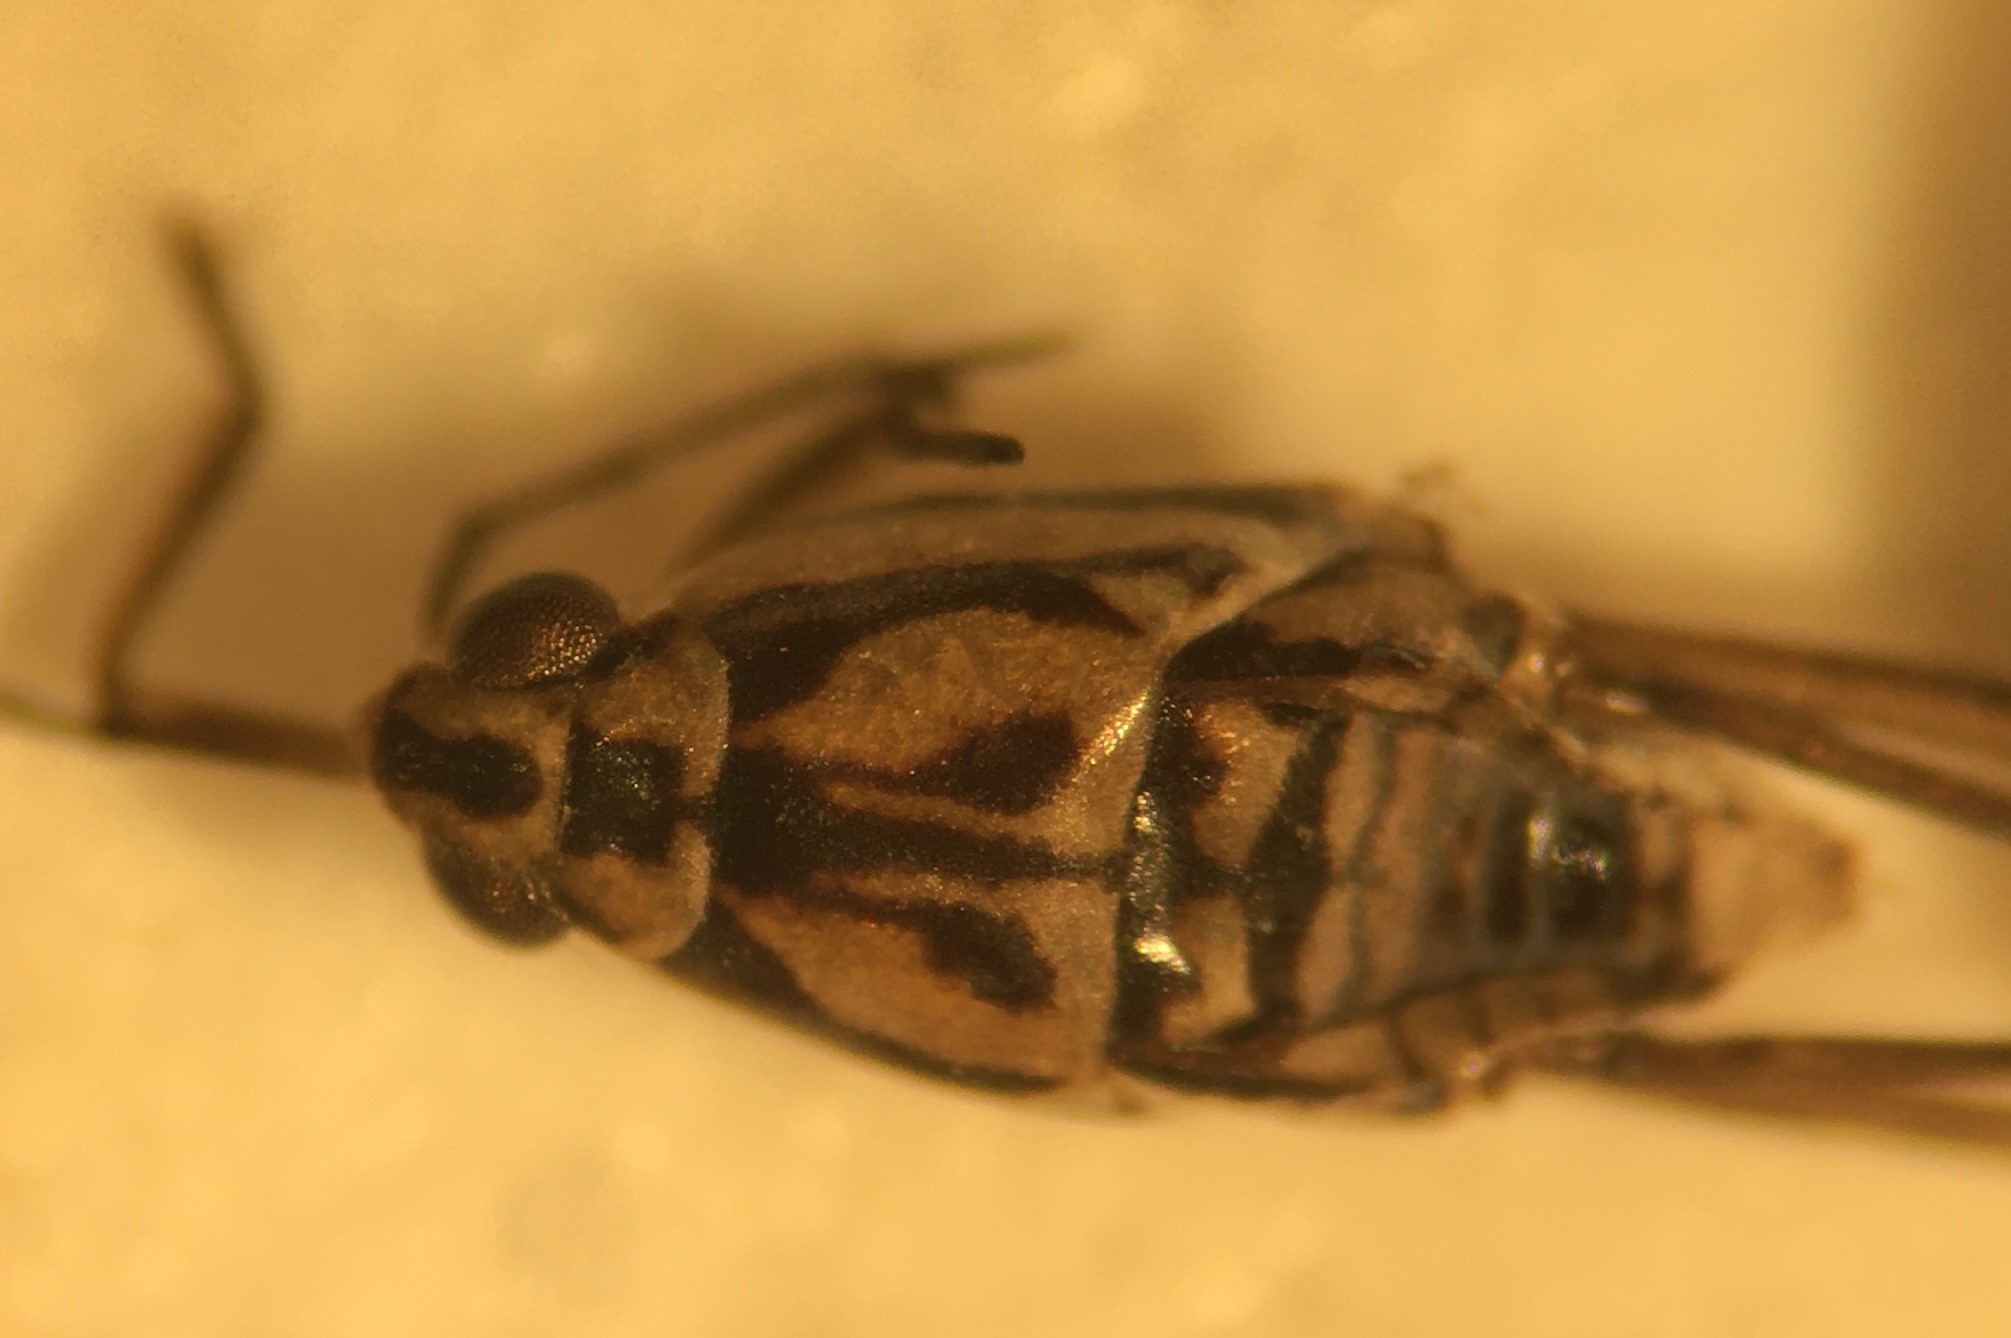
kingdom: Animalia
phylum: Arthropoda
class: Insecta
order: Hemiptera
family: Gerridae
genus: Trepobates
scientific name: Trepobates floridensis
